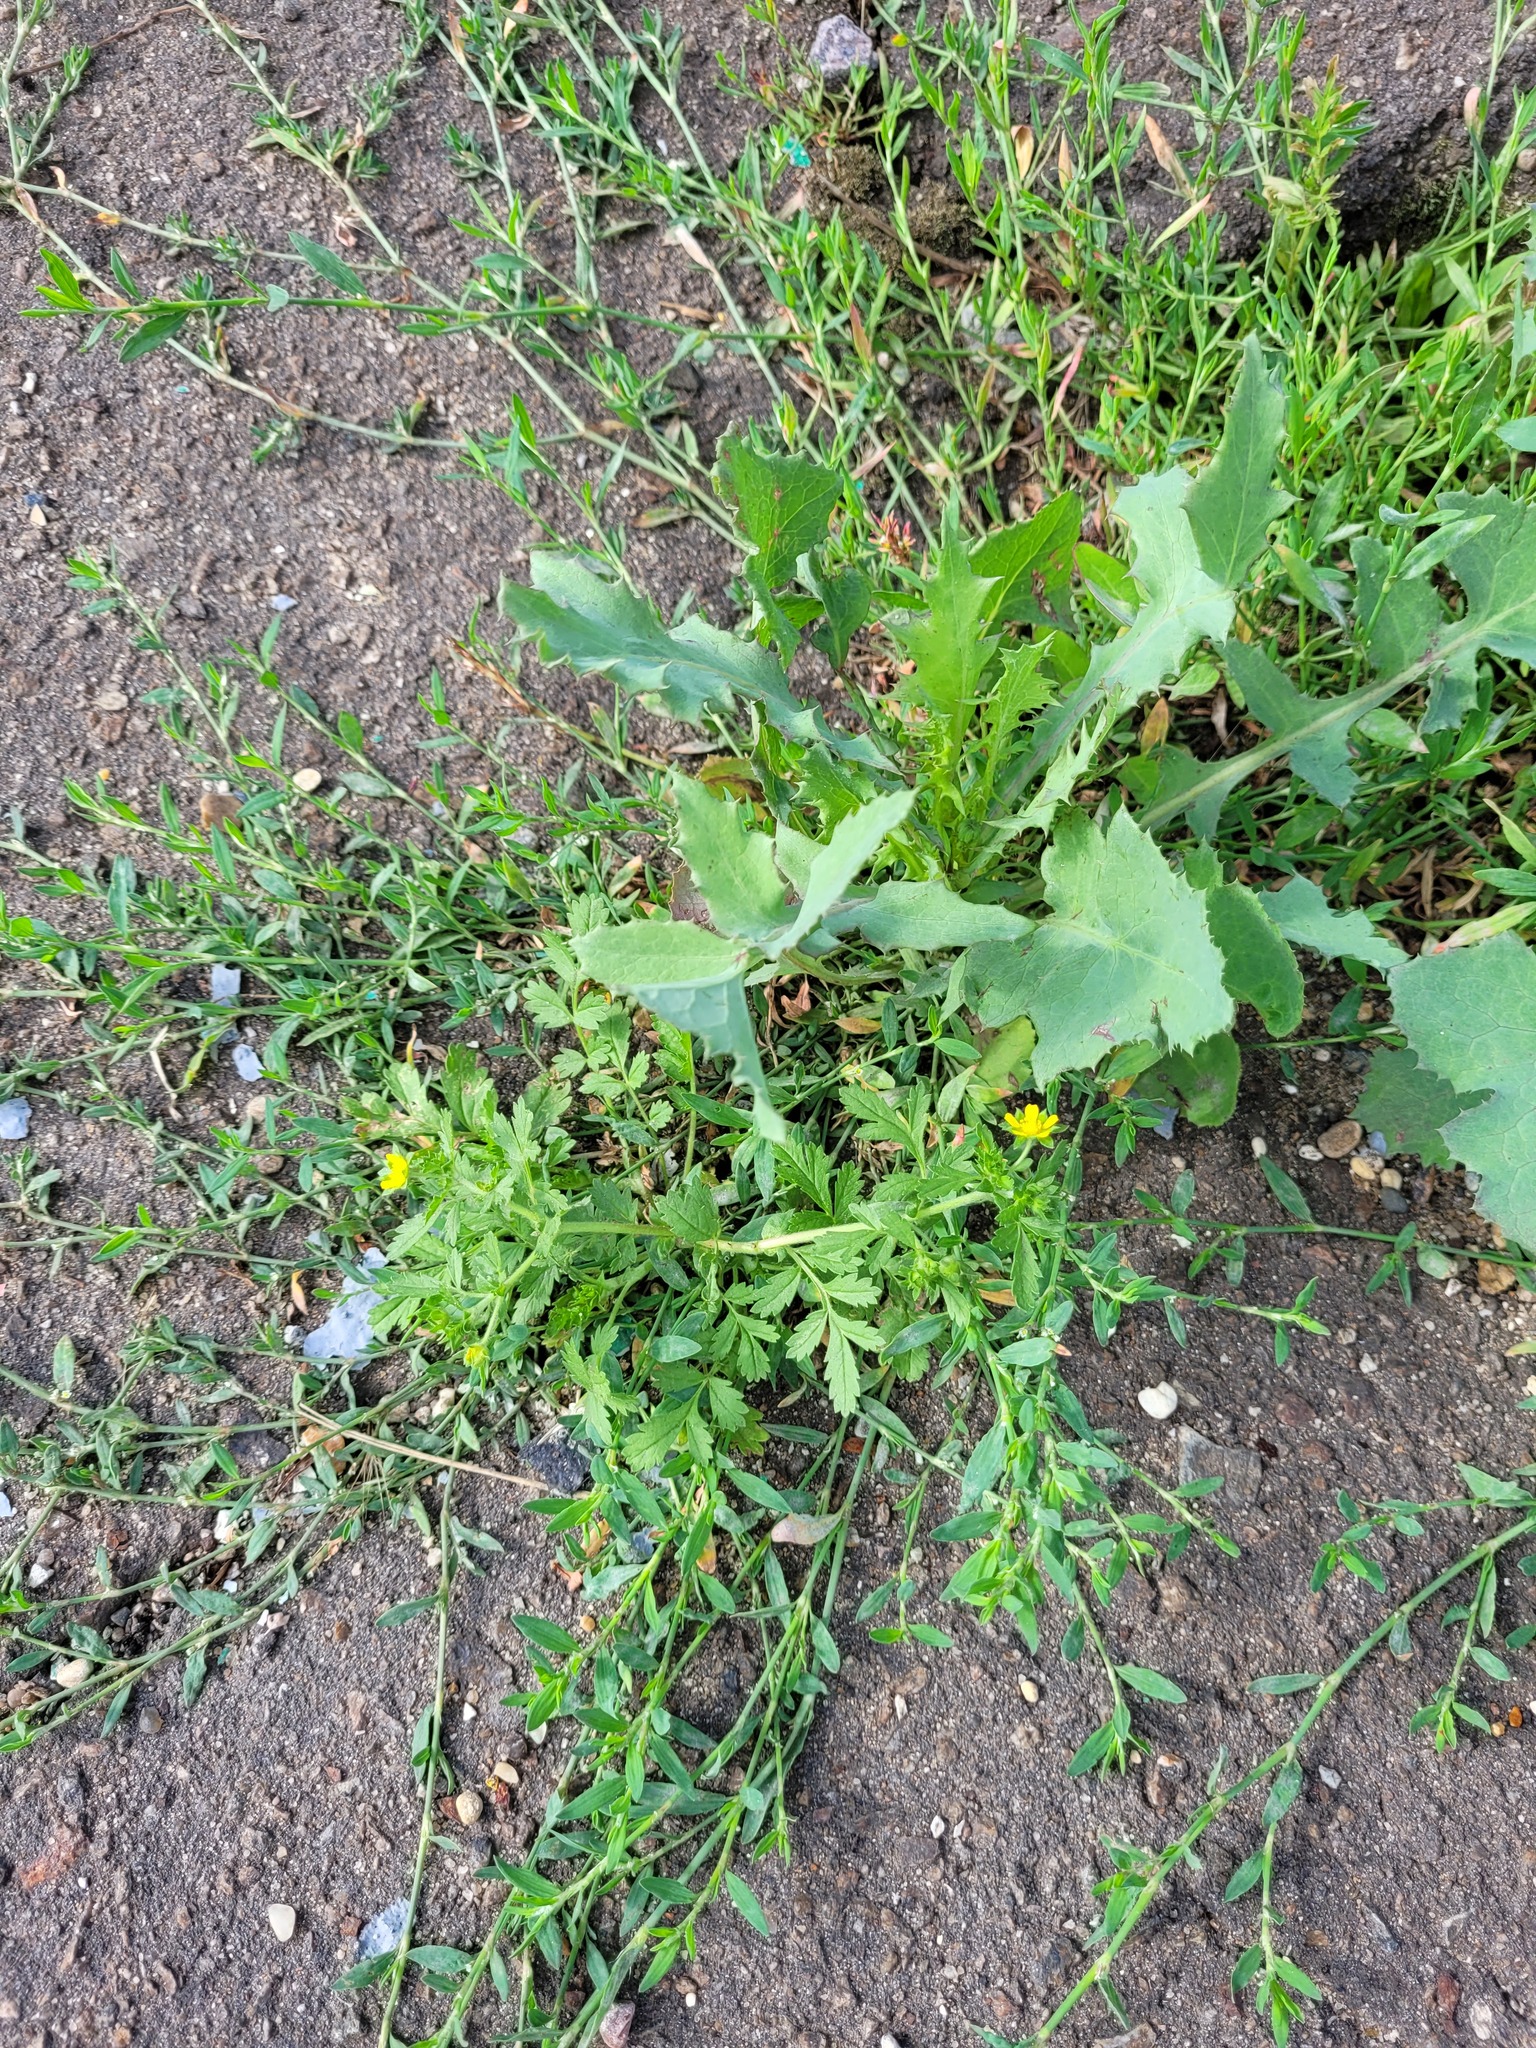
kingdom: Plantae
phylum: Tracheophyta
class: Magnoliopsida
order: Rosales
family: Rosaceae
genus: Potentilla
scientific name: Potentilla supina
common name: Prostrate cinquefoil
